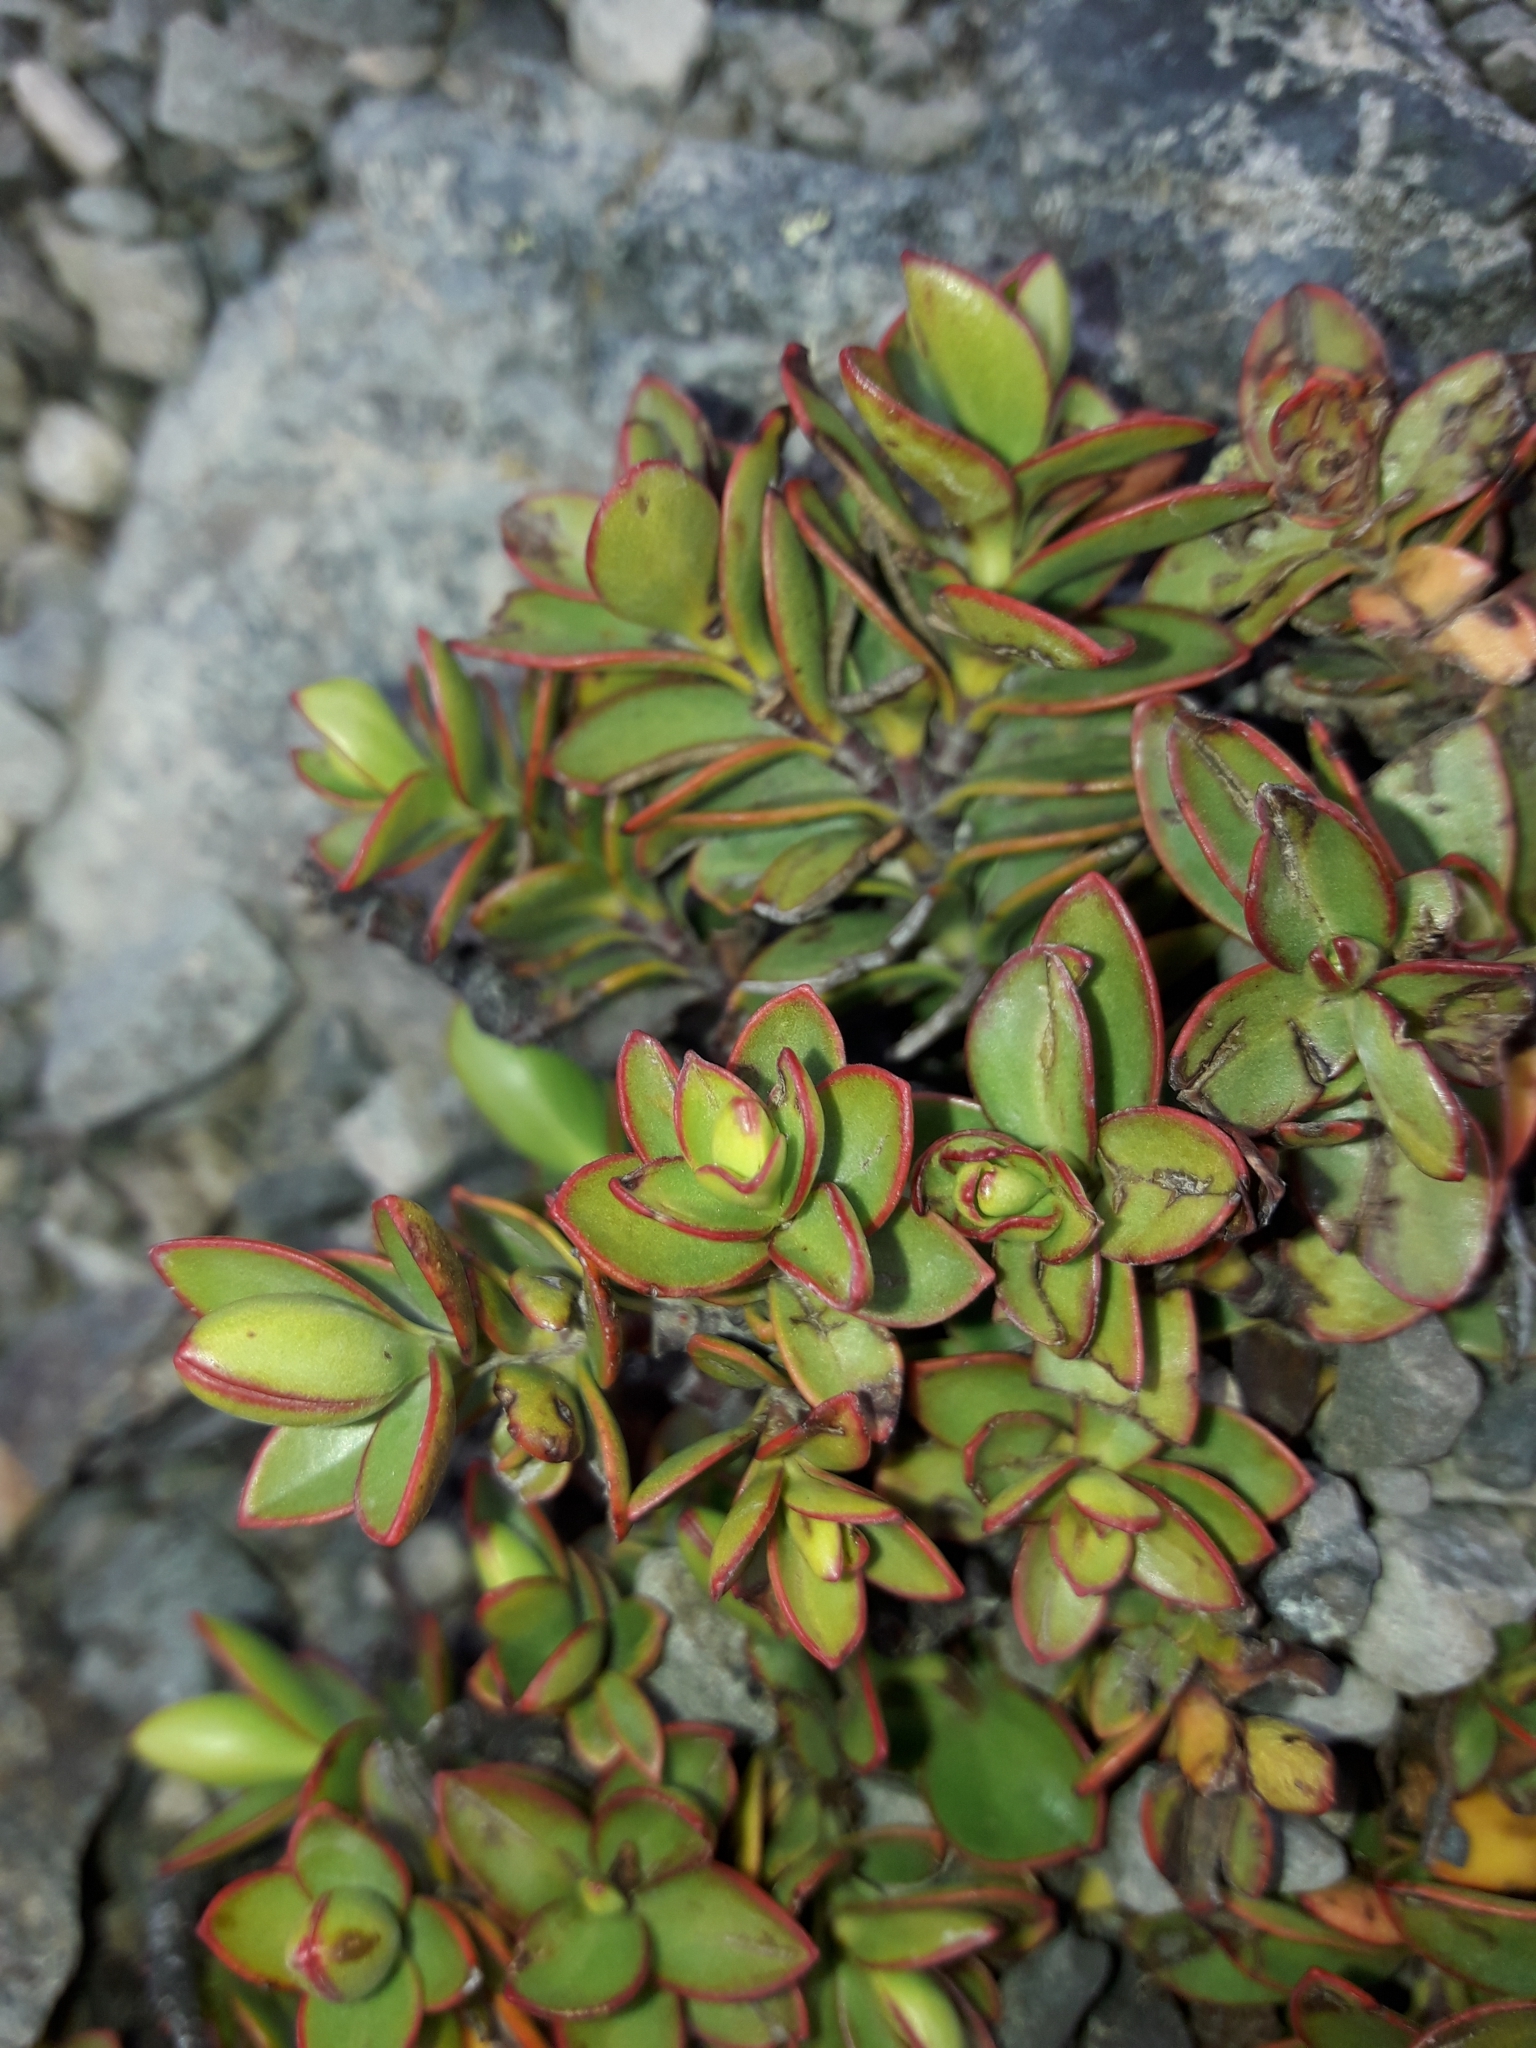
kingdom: Plantae
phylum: Tracheophyta
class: Magnoliopsida
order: Lamiales
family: Plantaginaceae
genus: Veronica
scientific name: Veronica decumbens
